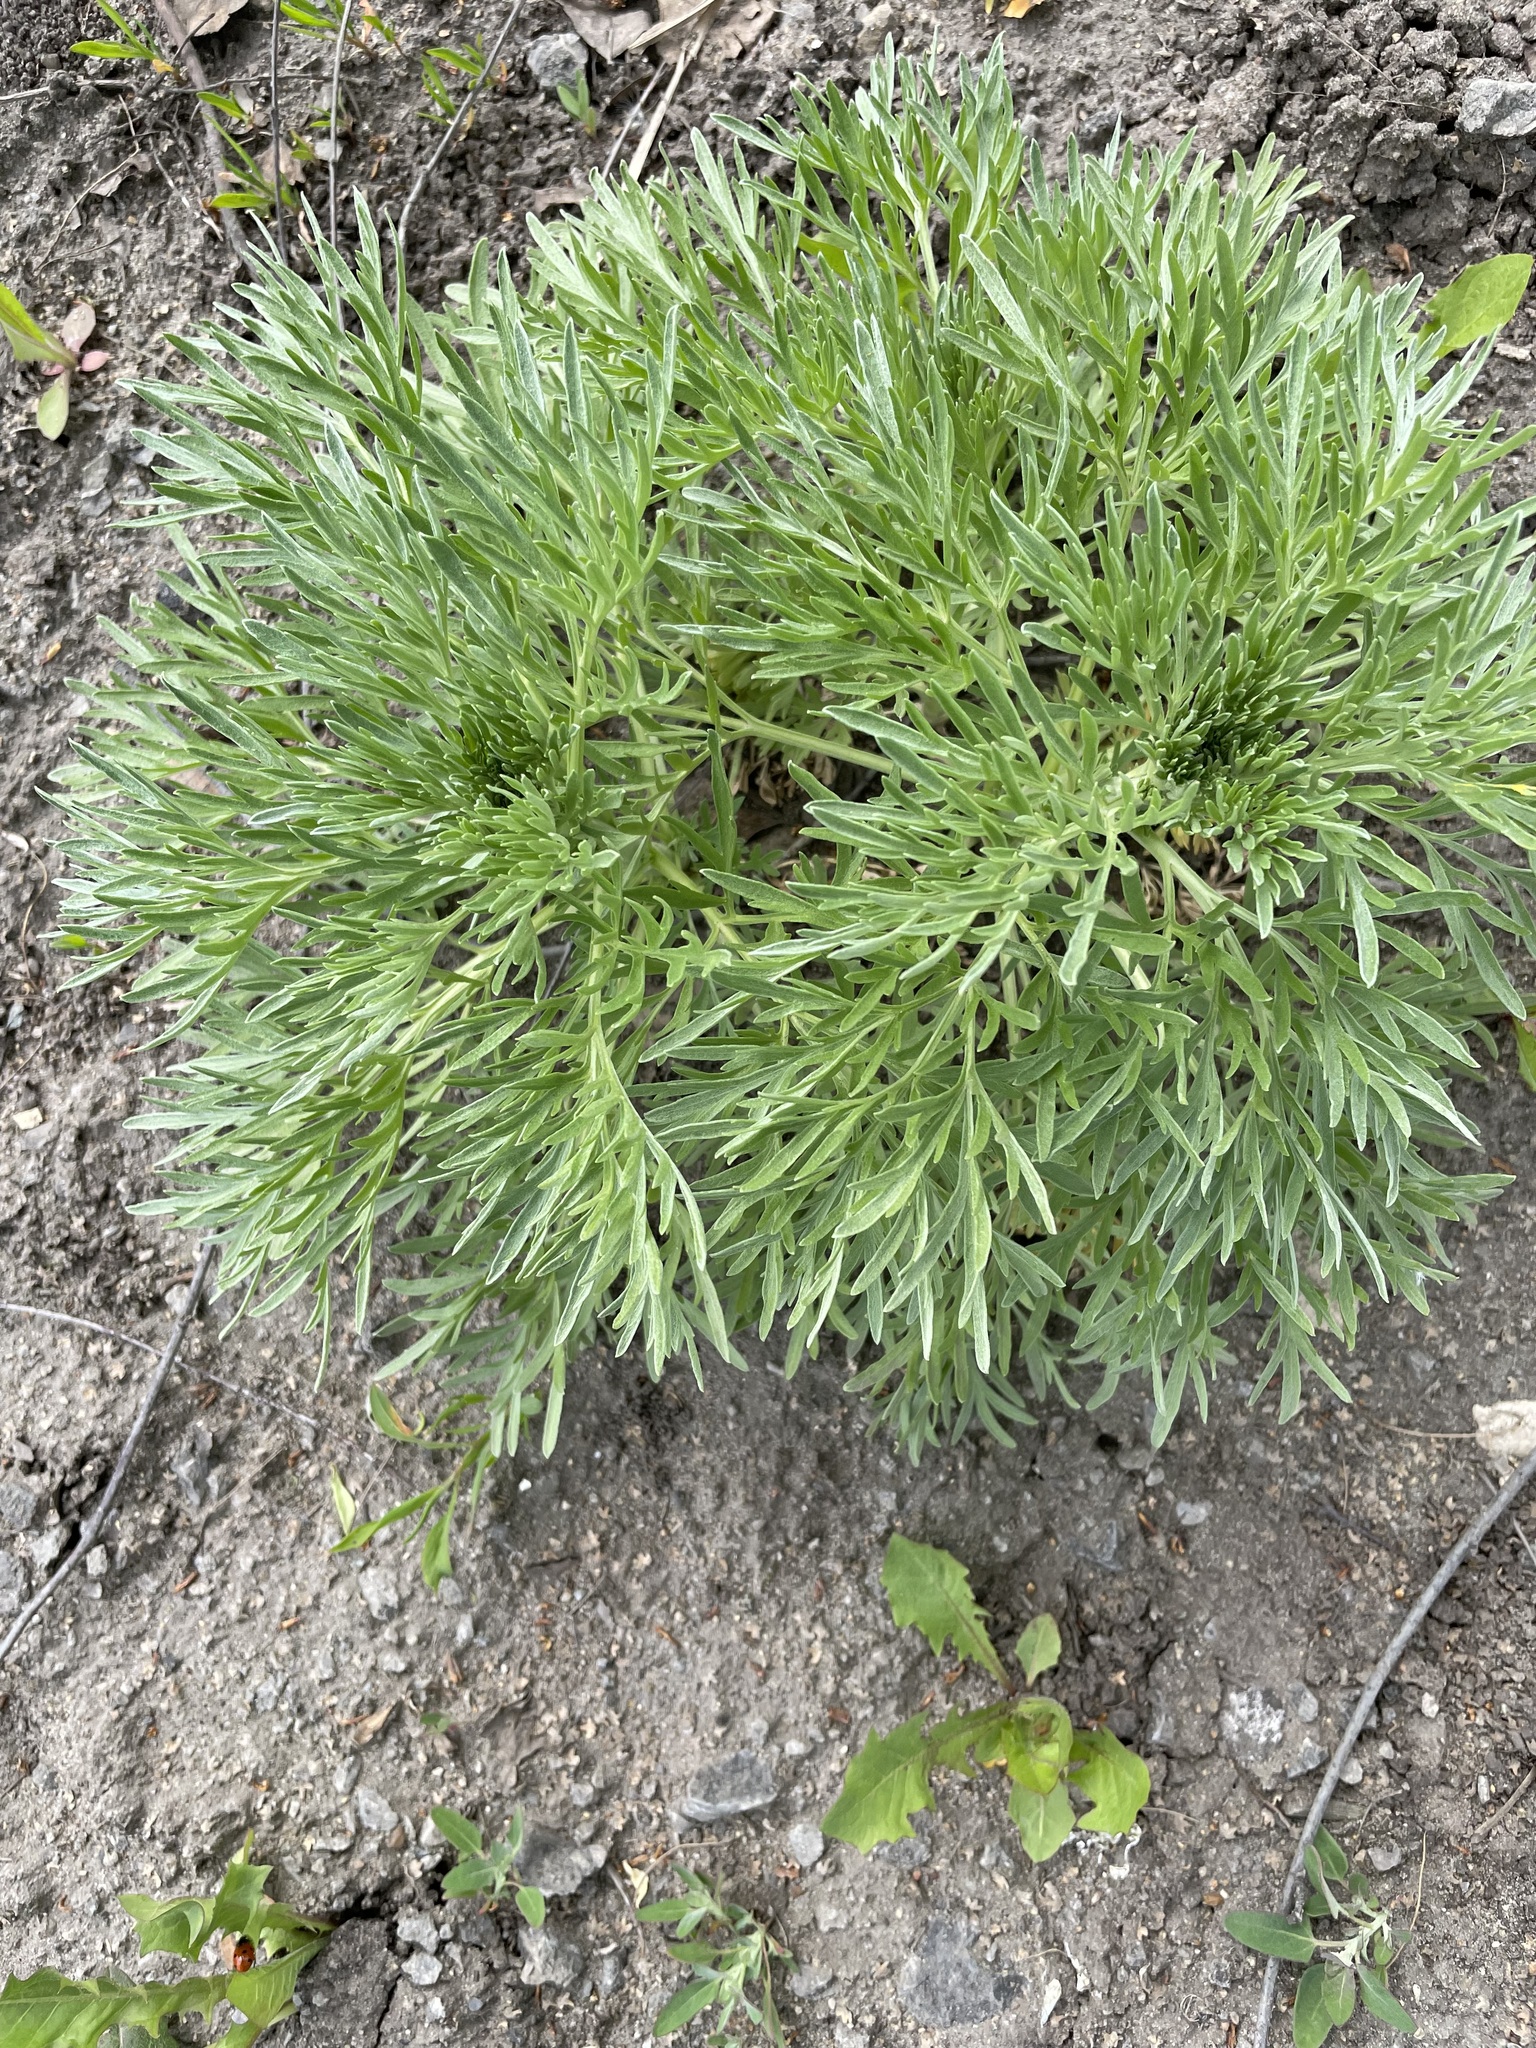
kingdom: Plantae
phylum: Tracheophyta
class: Magnoliopsida
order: Asterales
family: Asteraceae
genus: Artemisia
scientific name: Artemisia absinthium
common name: Wormwood
